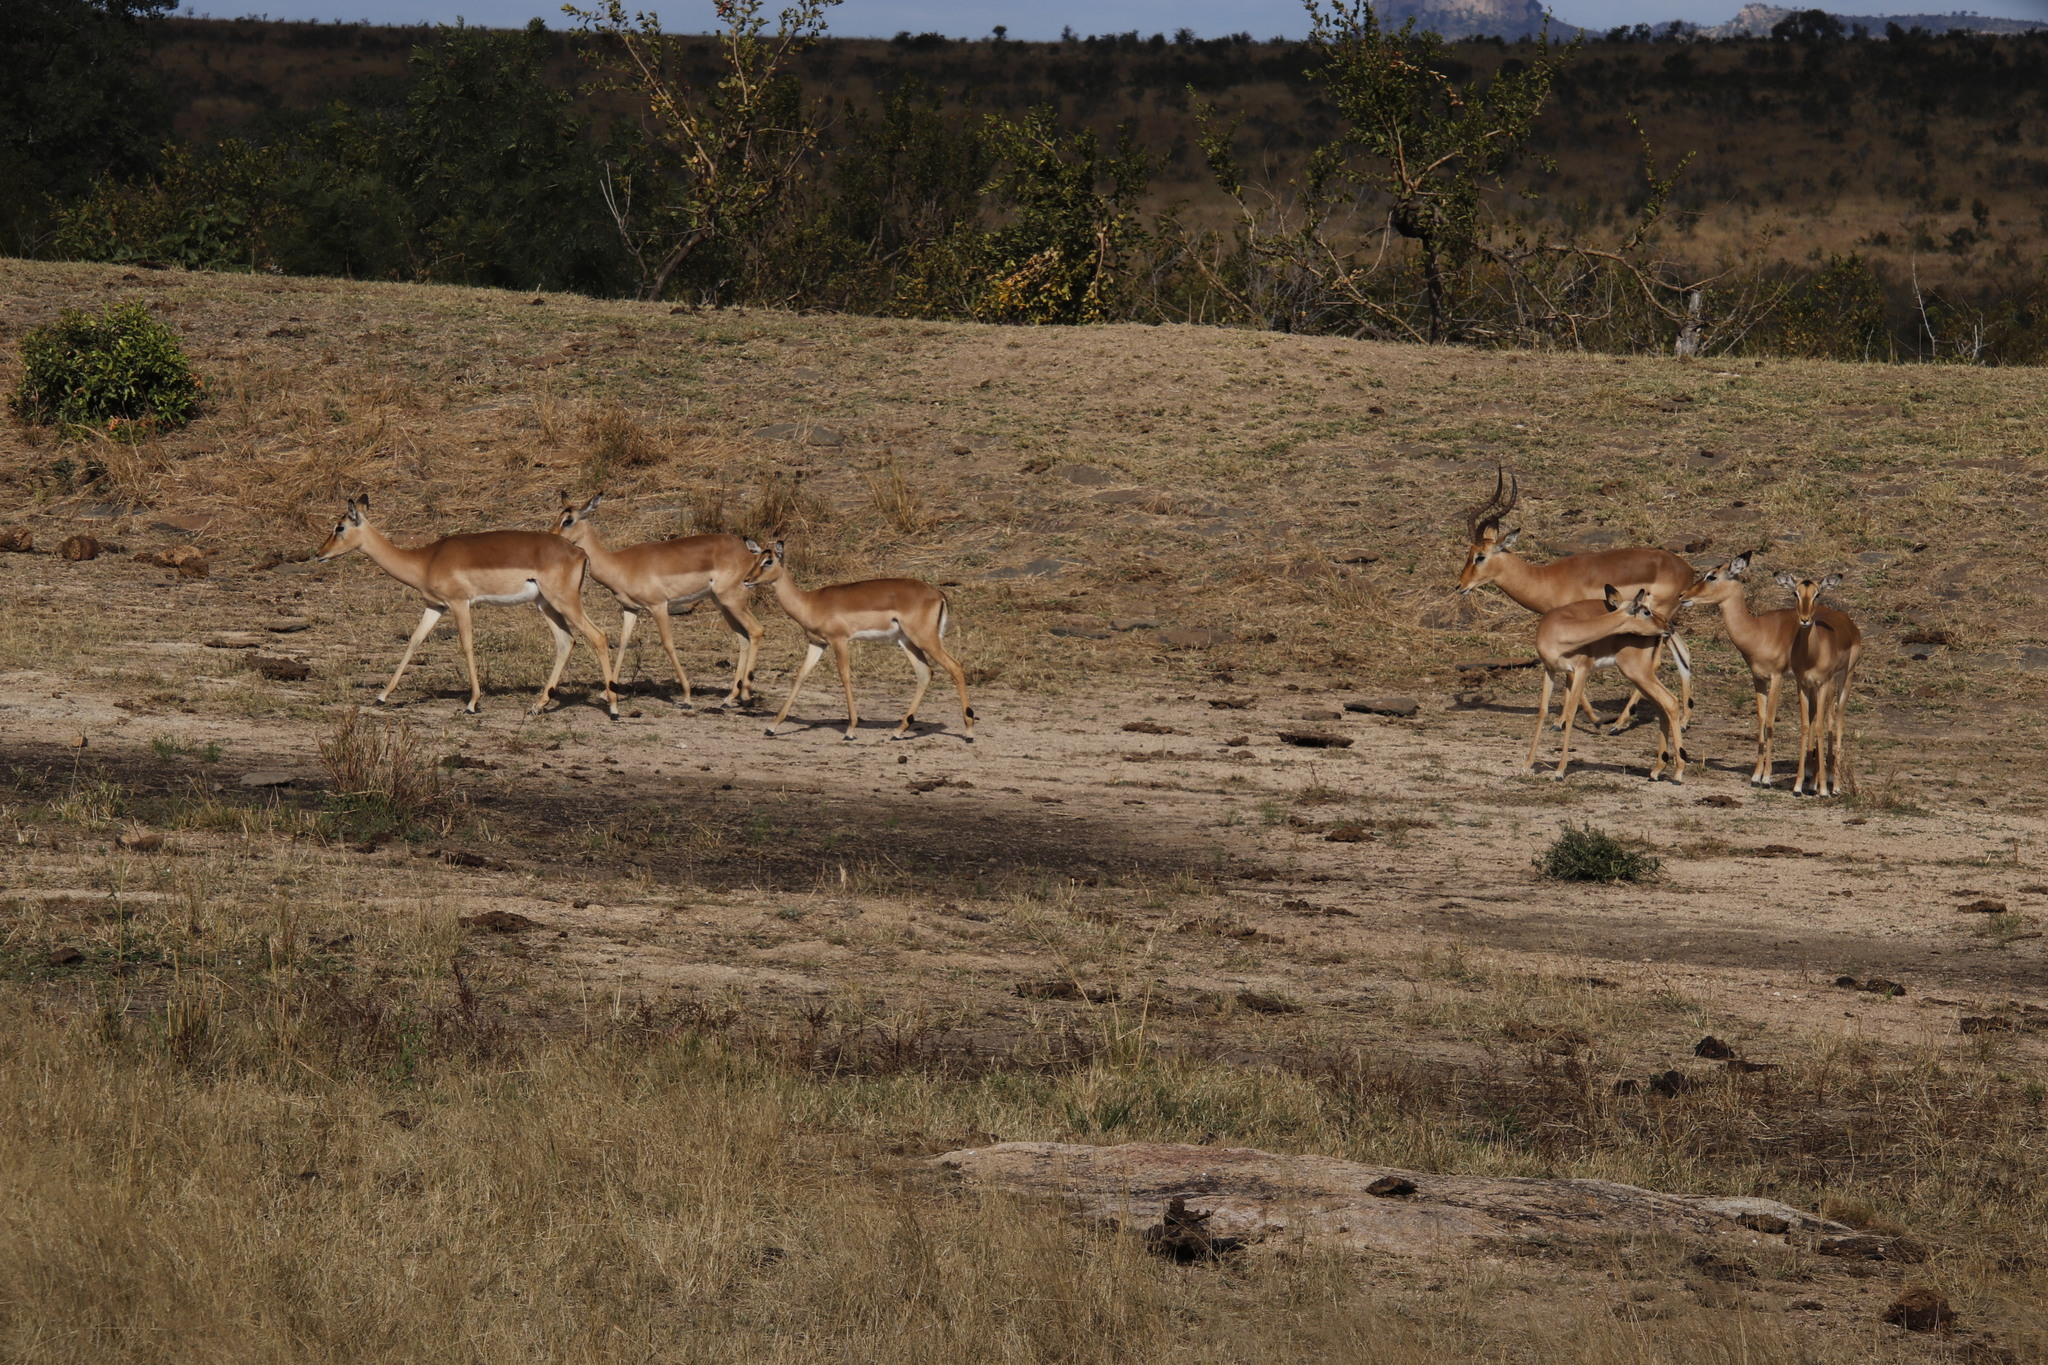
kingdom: Animalia
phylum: Chordata
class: Mammalia
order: Artiodactyla
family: Bovidae
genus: Aepyceros
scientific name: Aepyceros melampus
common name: Impala
